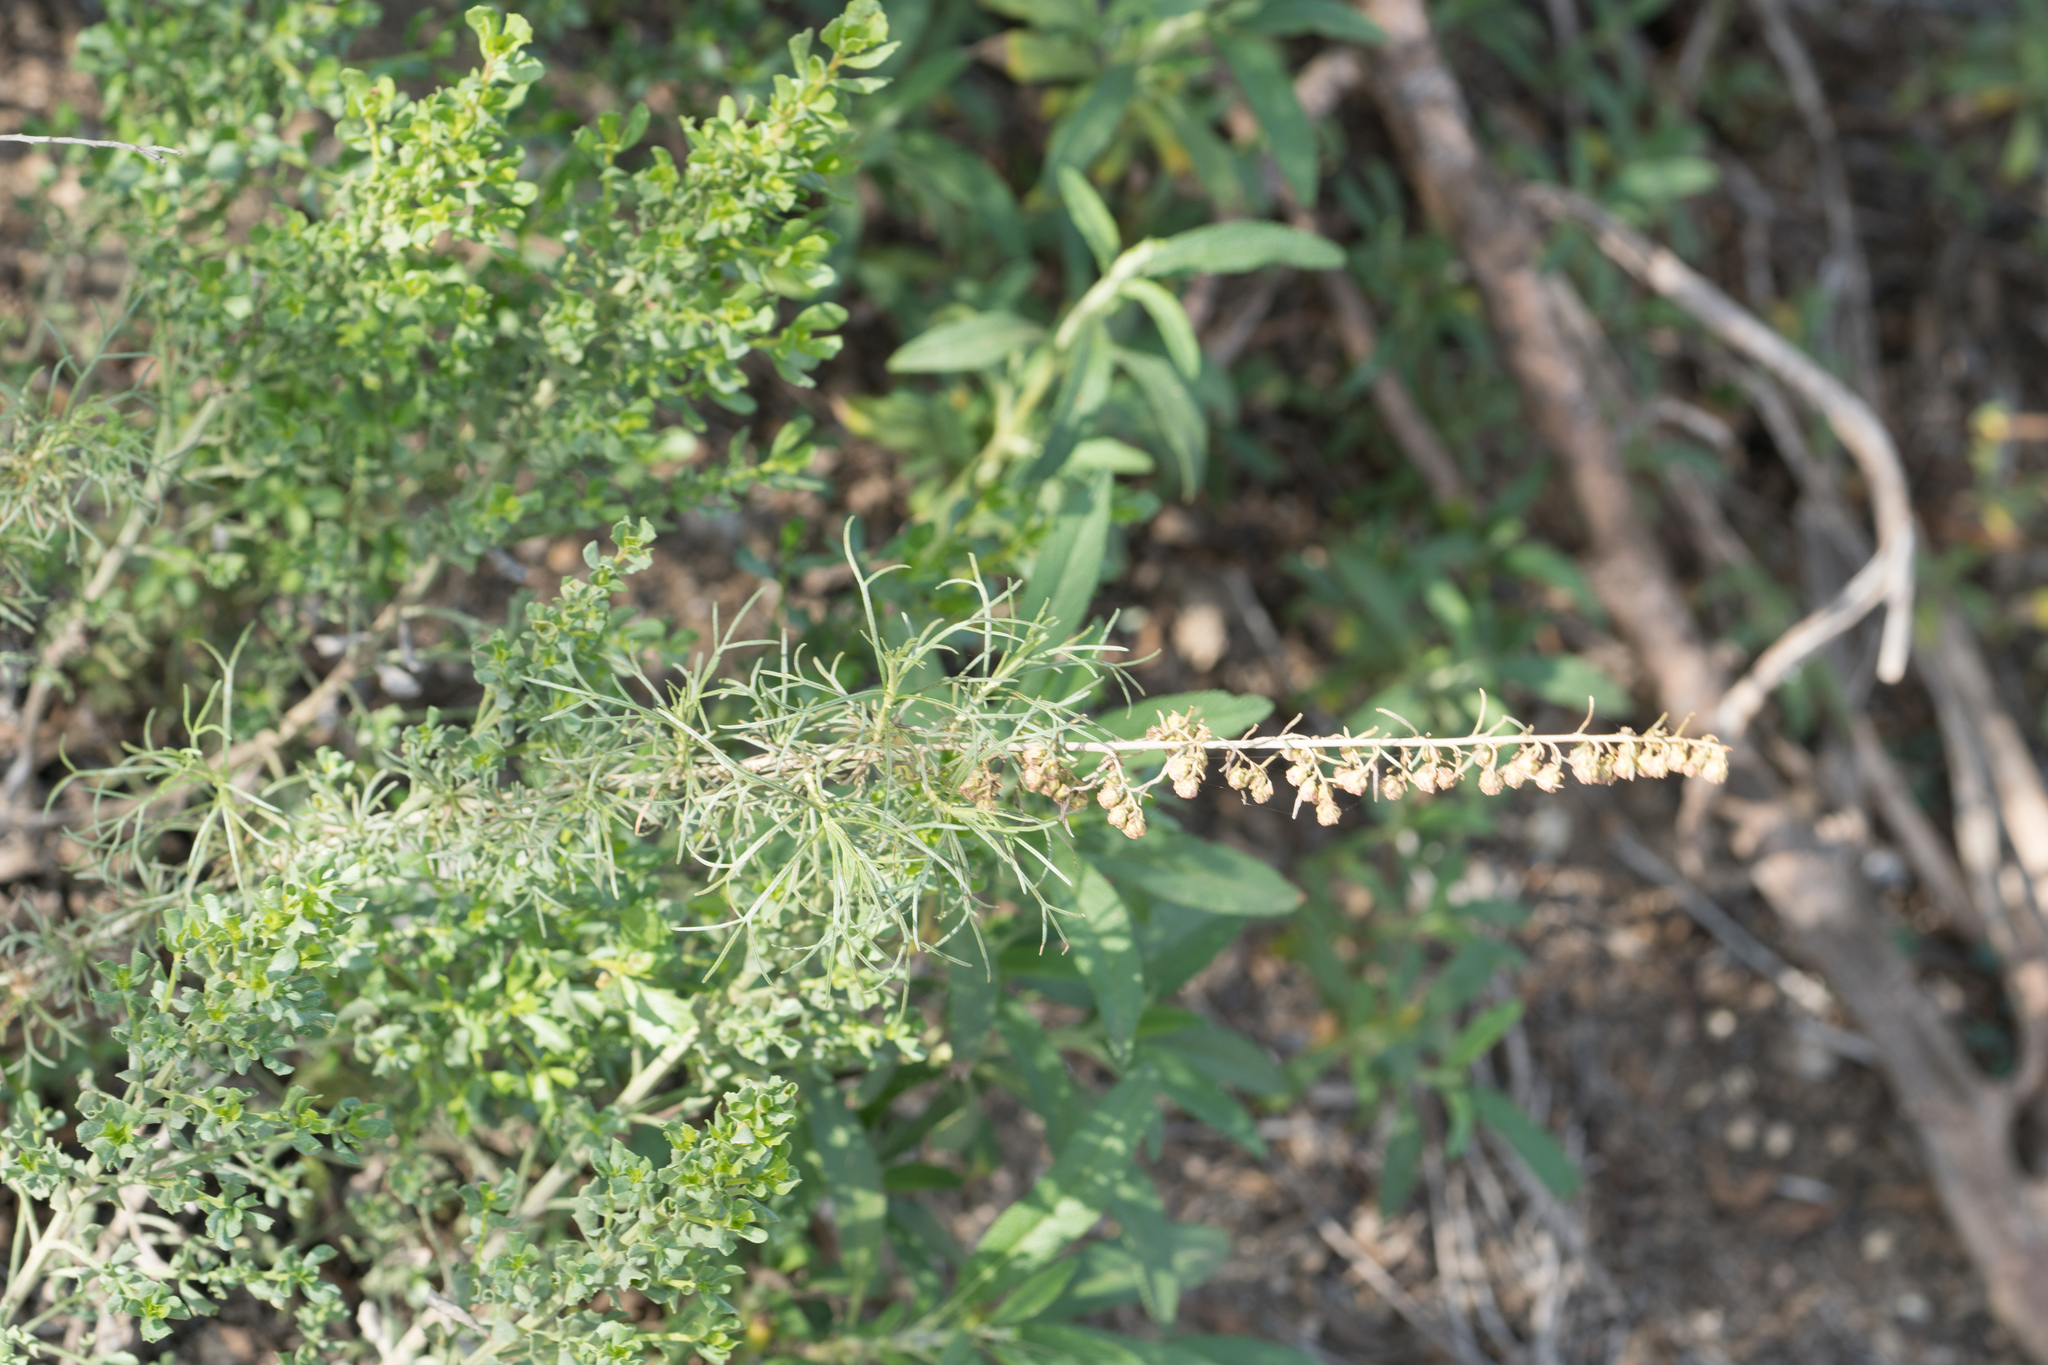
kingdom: Plantae
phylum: Tracheophyta
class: Magnoliopsida
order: Asterales
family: Asteraceae
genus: Artemisia
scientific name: Artemisia californica
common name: California sagebrush
